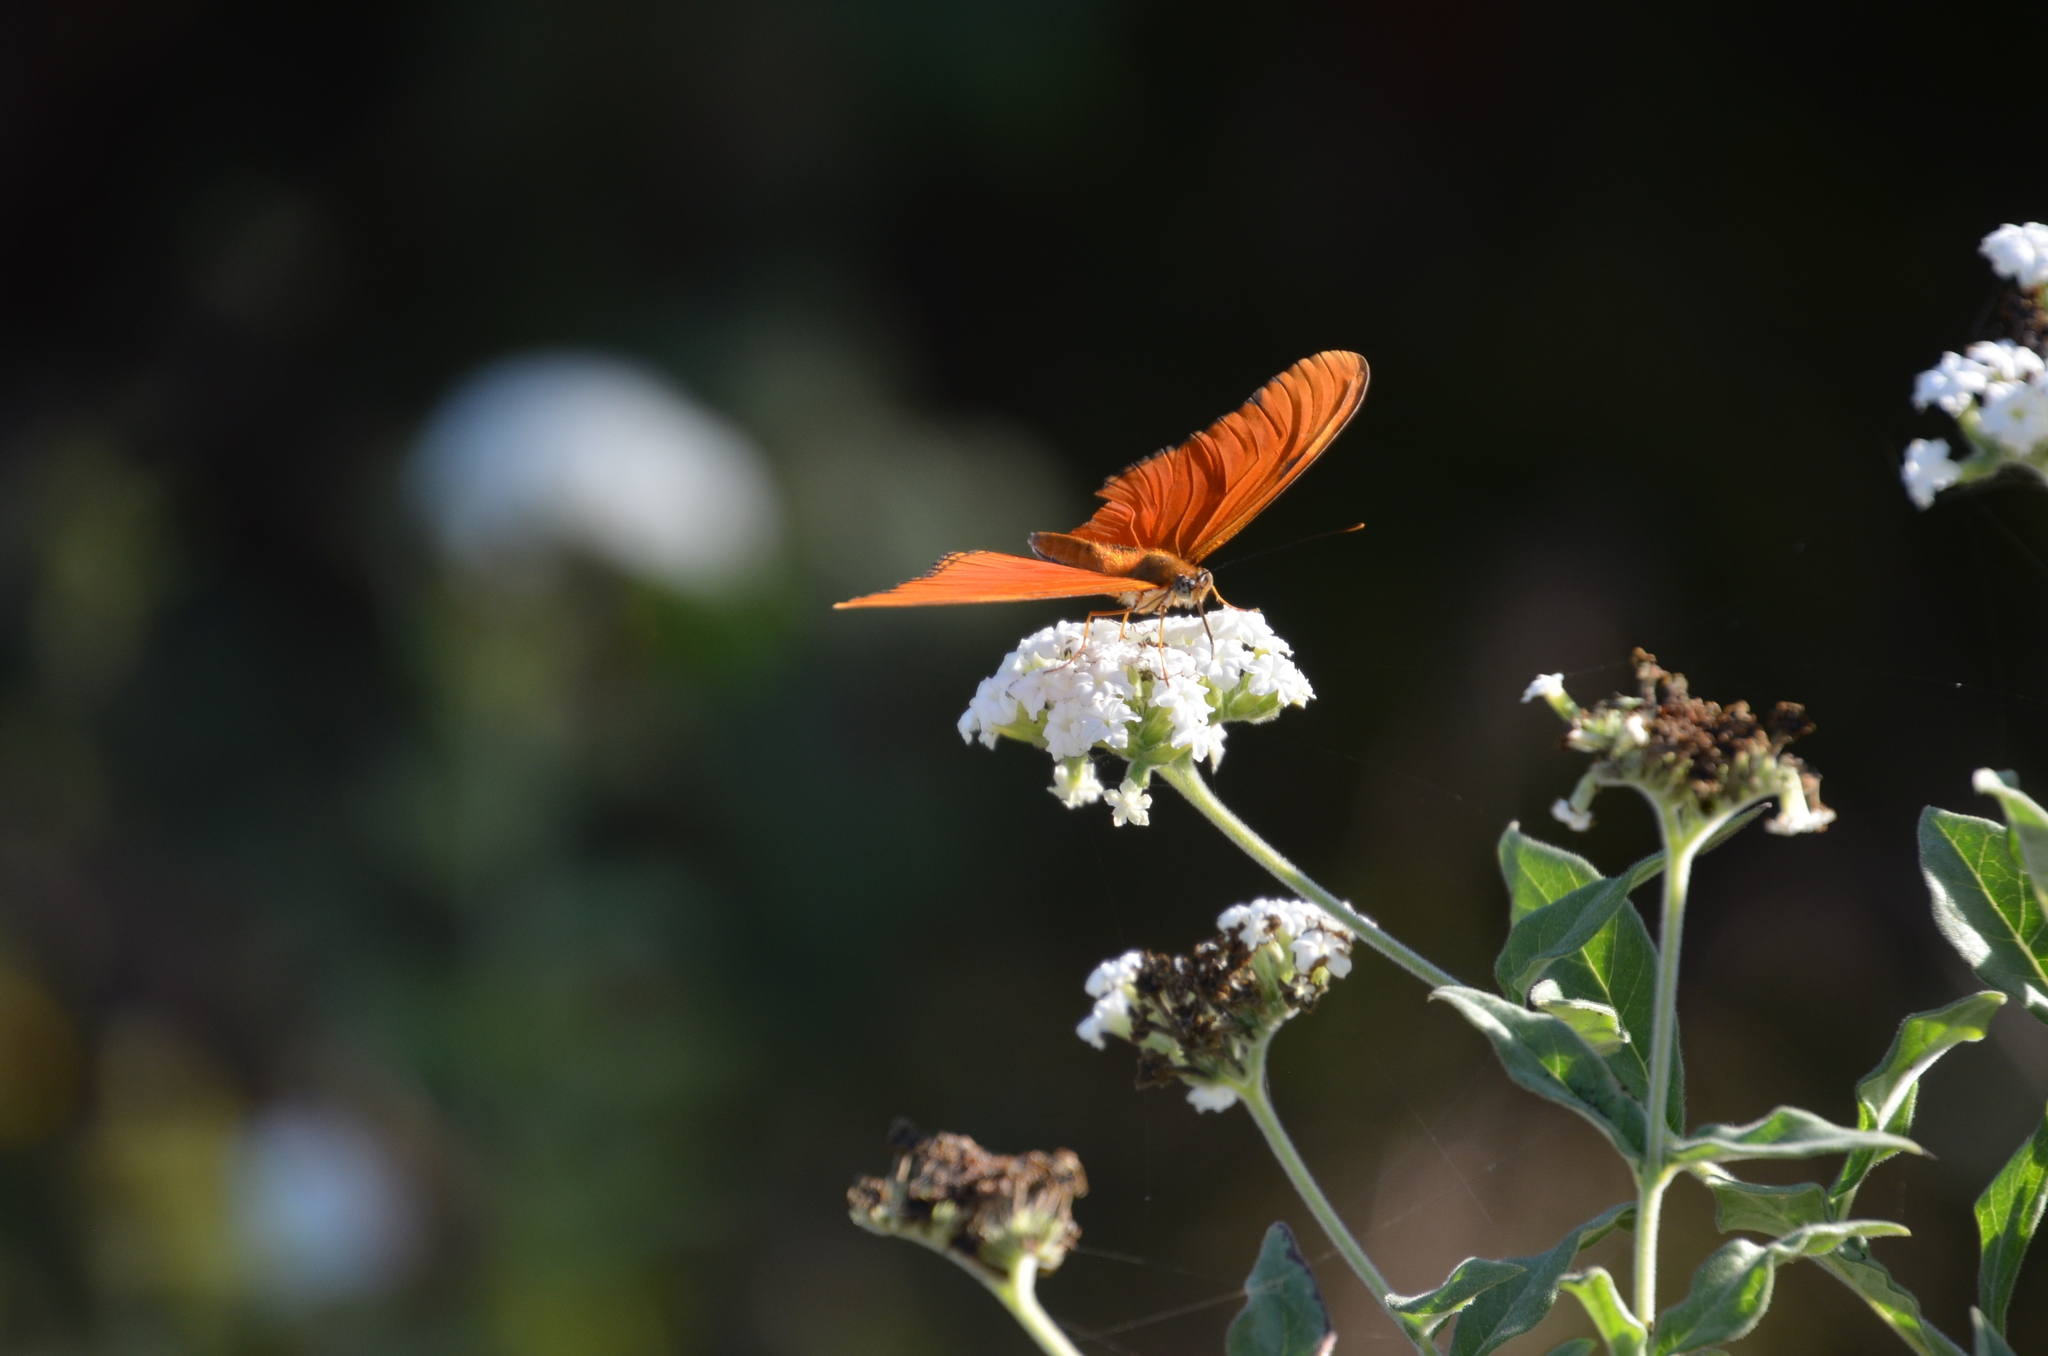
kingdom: Animalia
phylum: Arthropoda
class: Insecta
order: Lepidoptera
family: Nymphalidae
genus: Dryas
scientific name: Dryas iulia
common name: Flambeau
